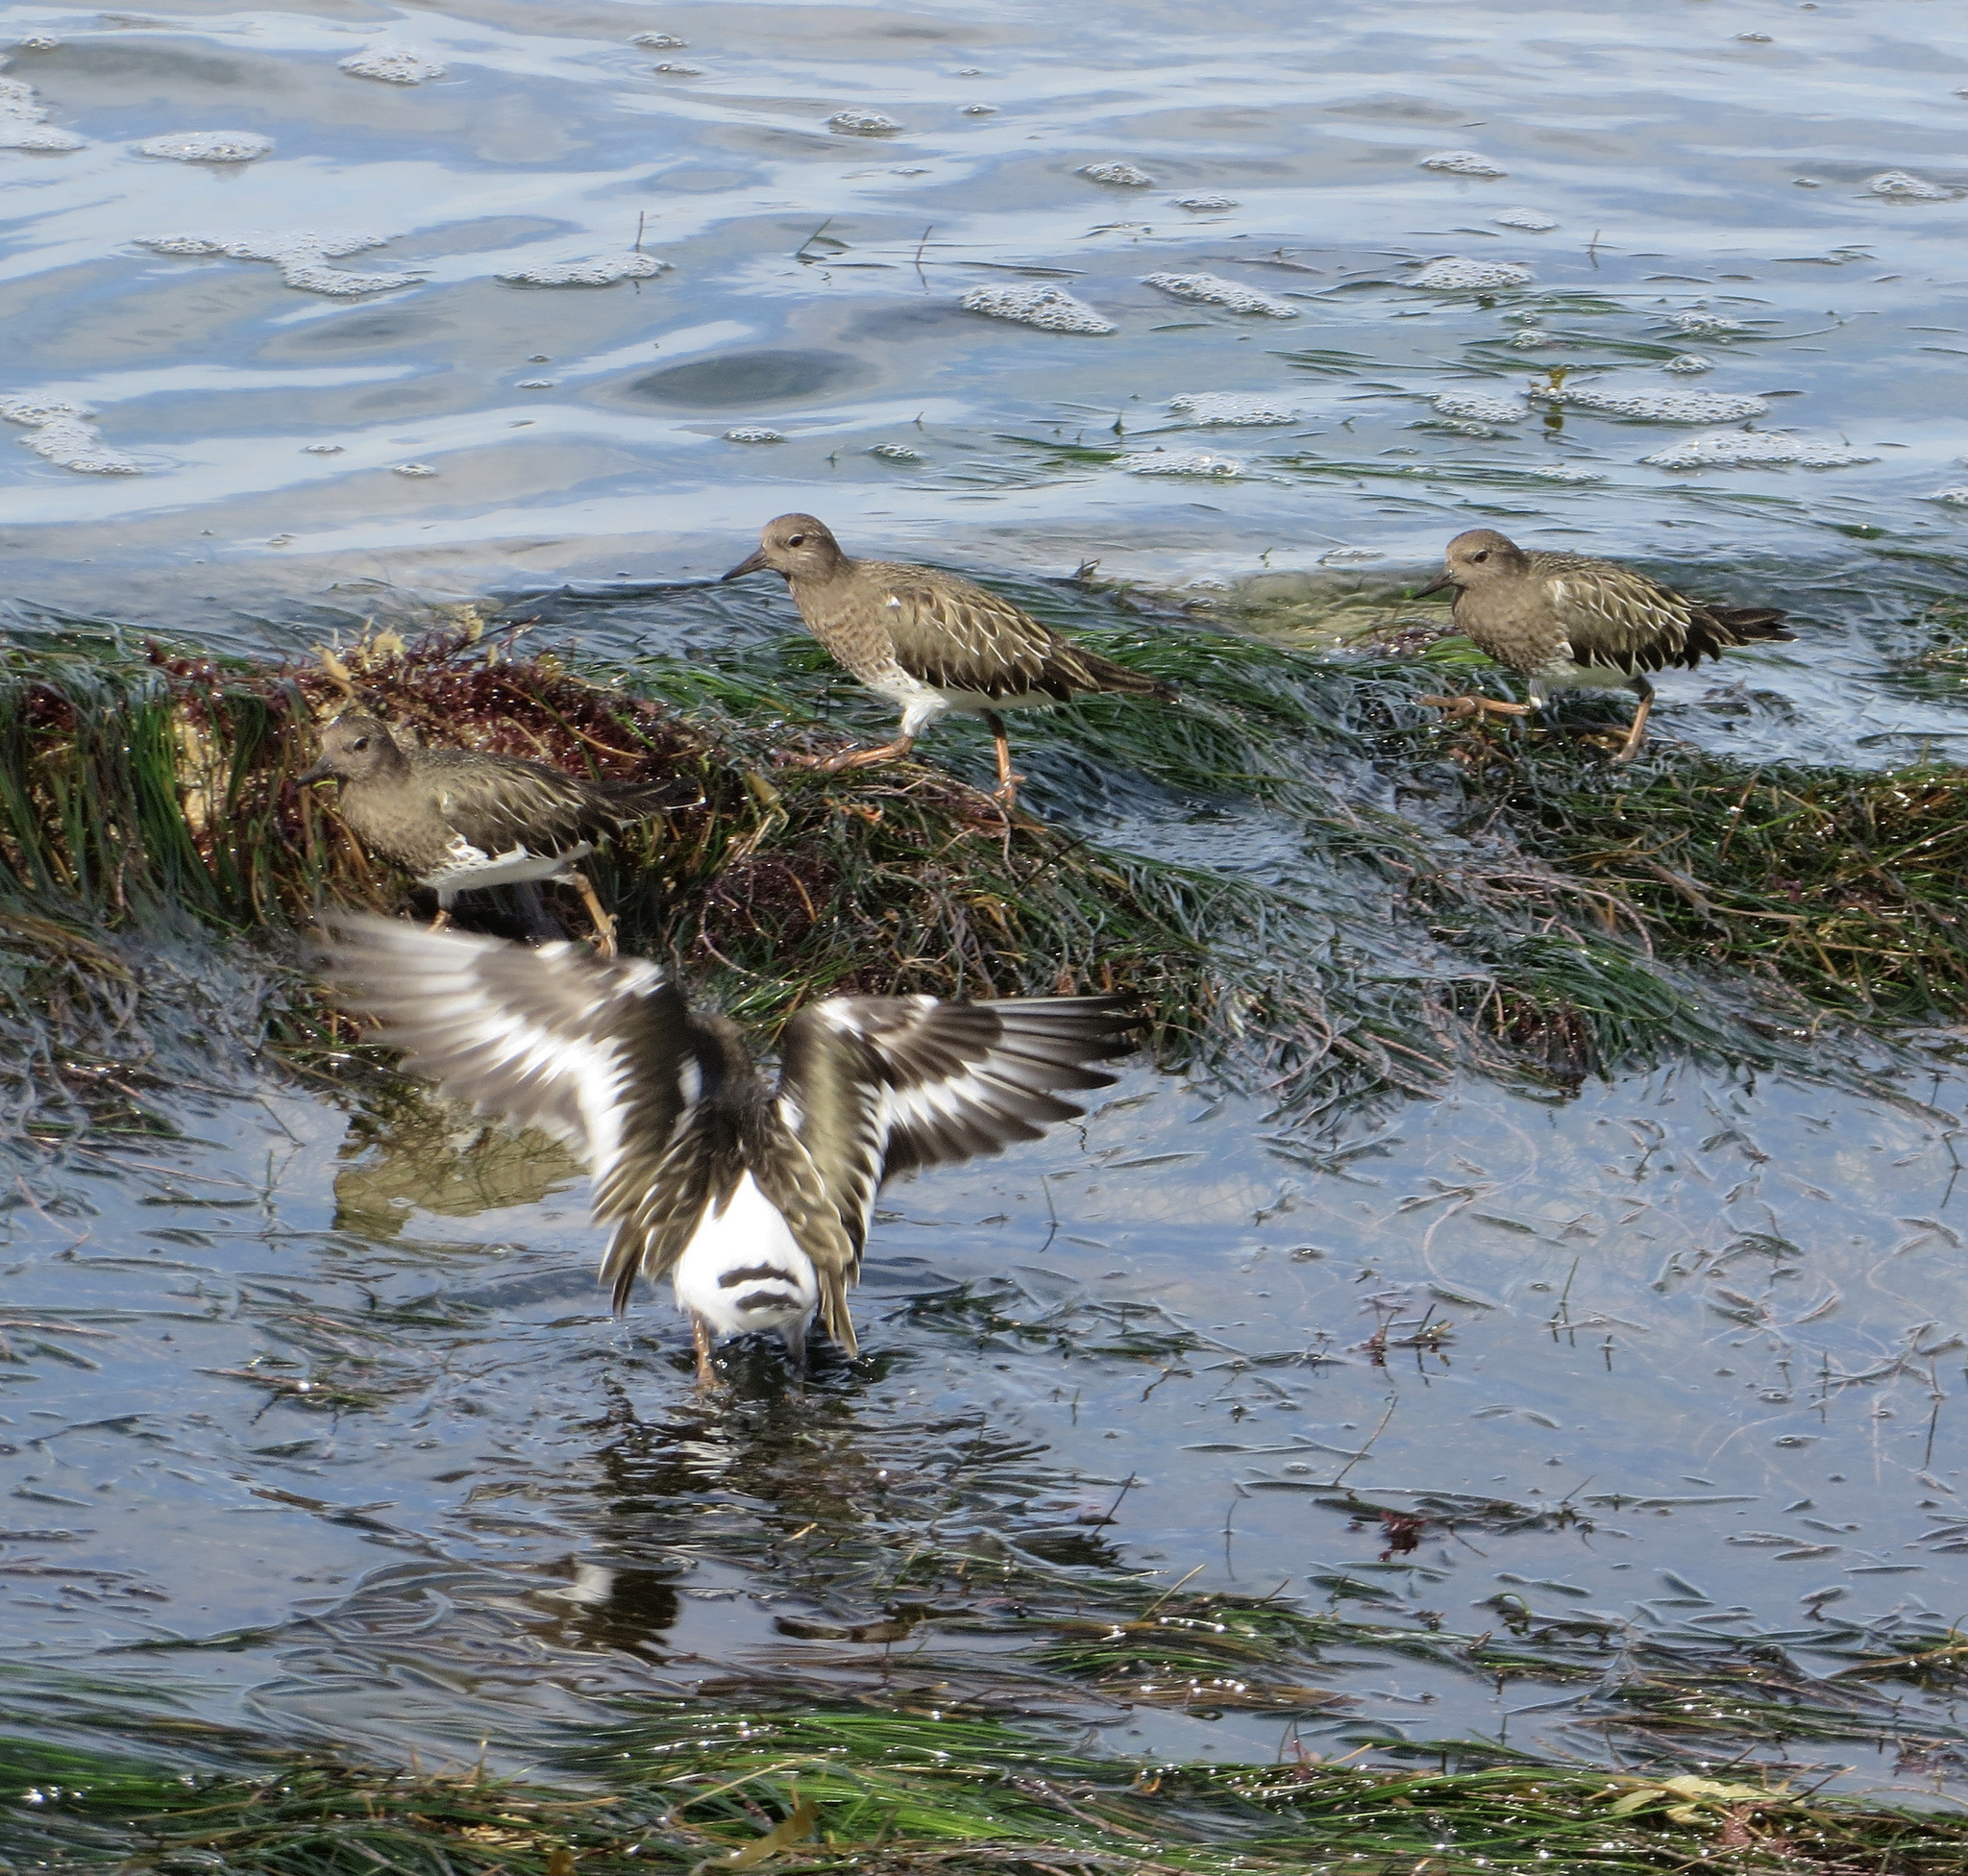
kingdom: Animalia
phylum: Chordata
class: Aves
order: Charadriiformes
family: Scolopacidae
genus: Arenaria
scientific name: Arenaria melanocephala
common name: Black turnstone
